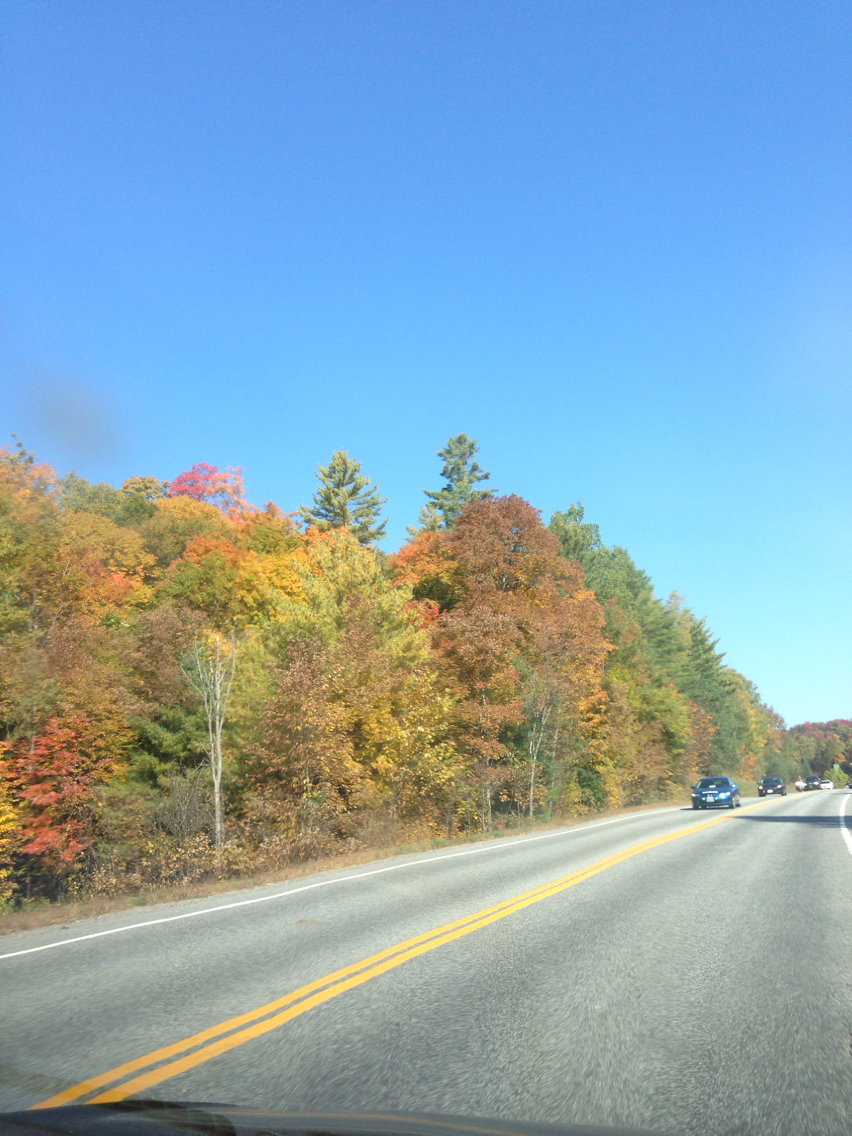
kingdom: Plantae
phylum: Tracheophyta
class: Pinopsida
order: Pinales
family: Pinaceae
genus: Pinus
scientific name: Pinus strobus
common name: Weymouth pine
